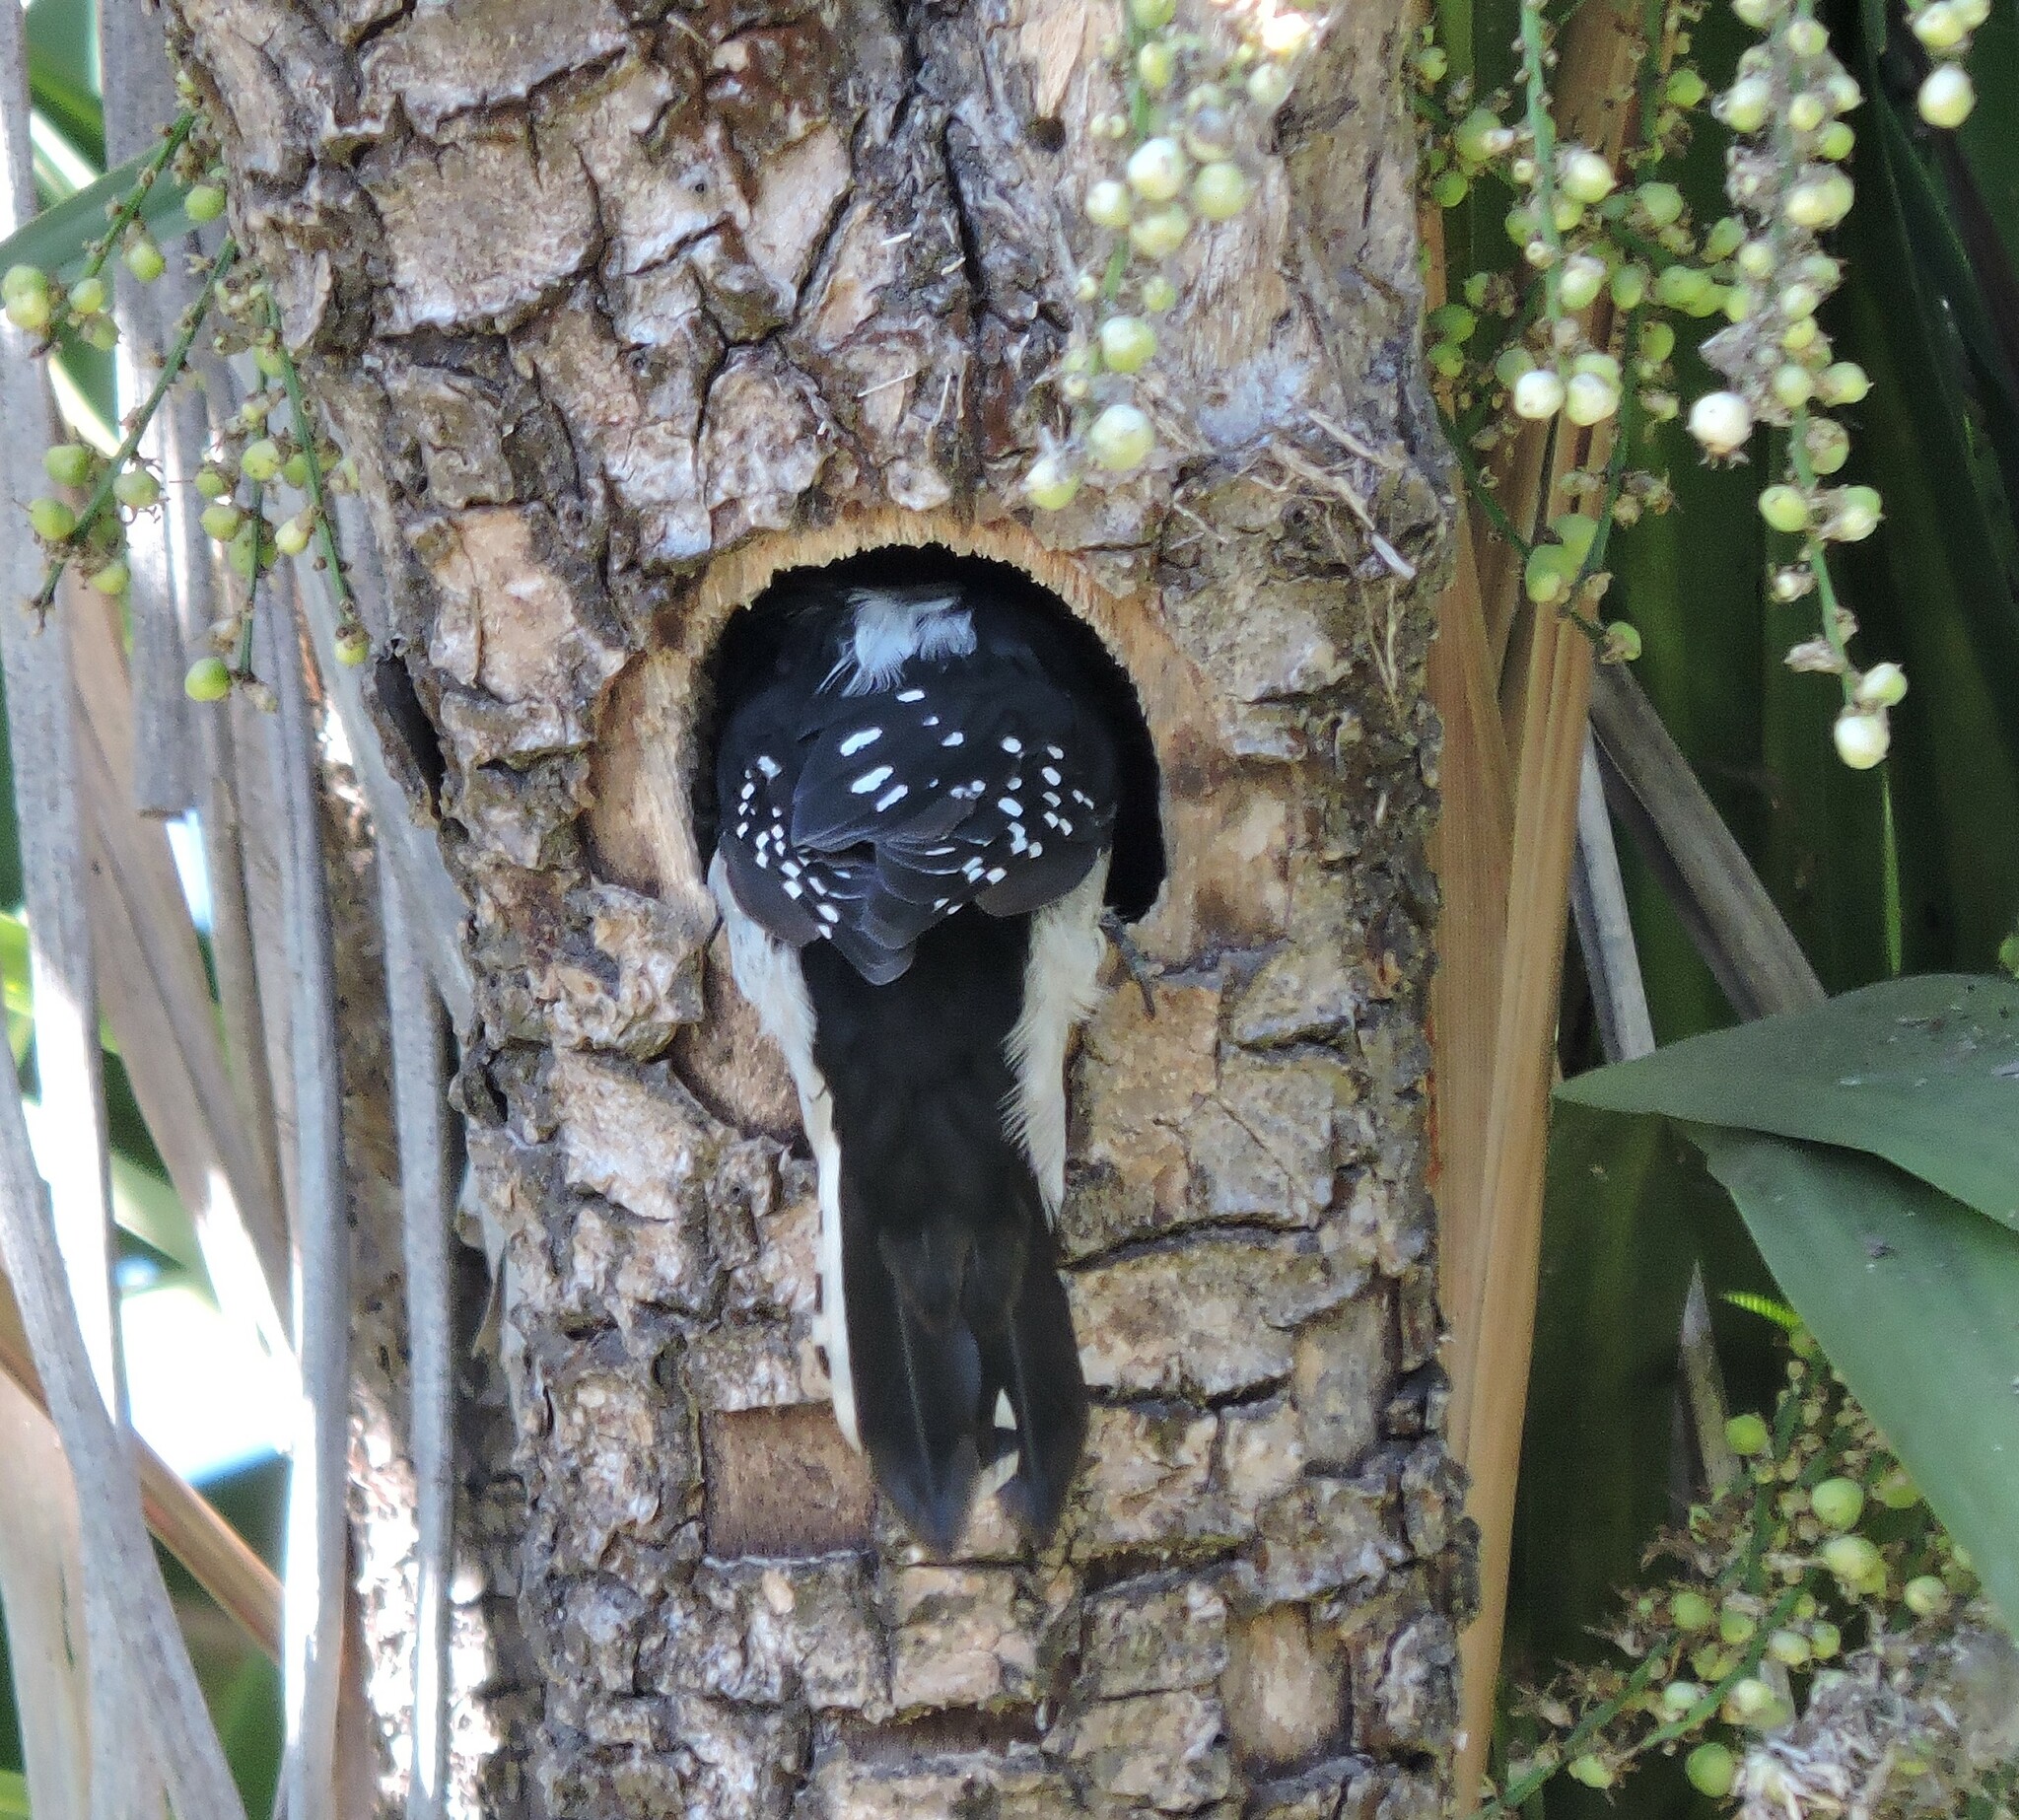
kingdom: Animalia
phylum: Chordata
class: Aves
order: Piciformes
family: Picidae
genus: Dryobates
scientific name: Dryobates pubescens
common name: Downy woodpecker
